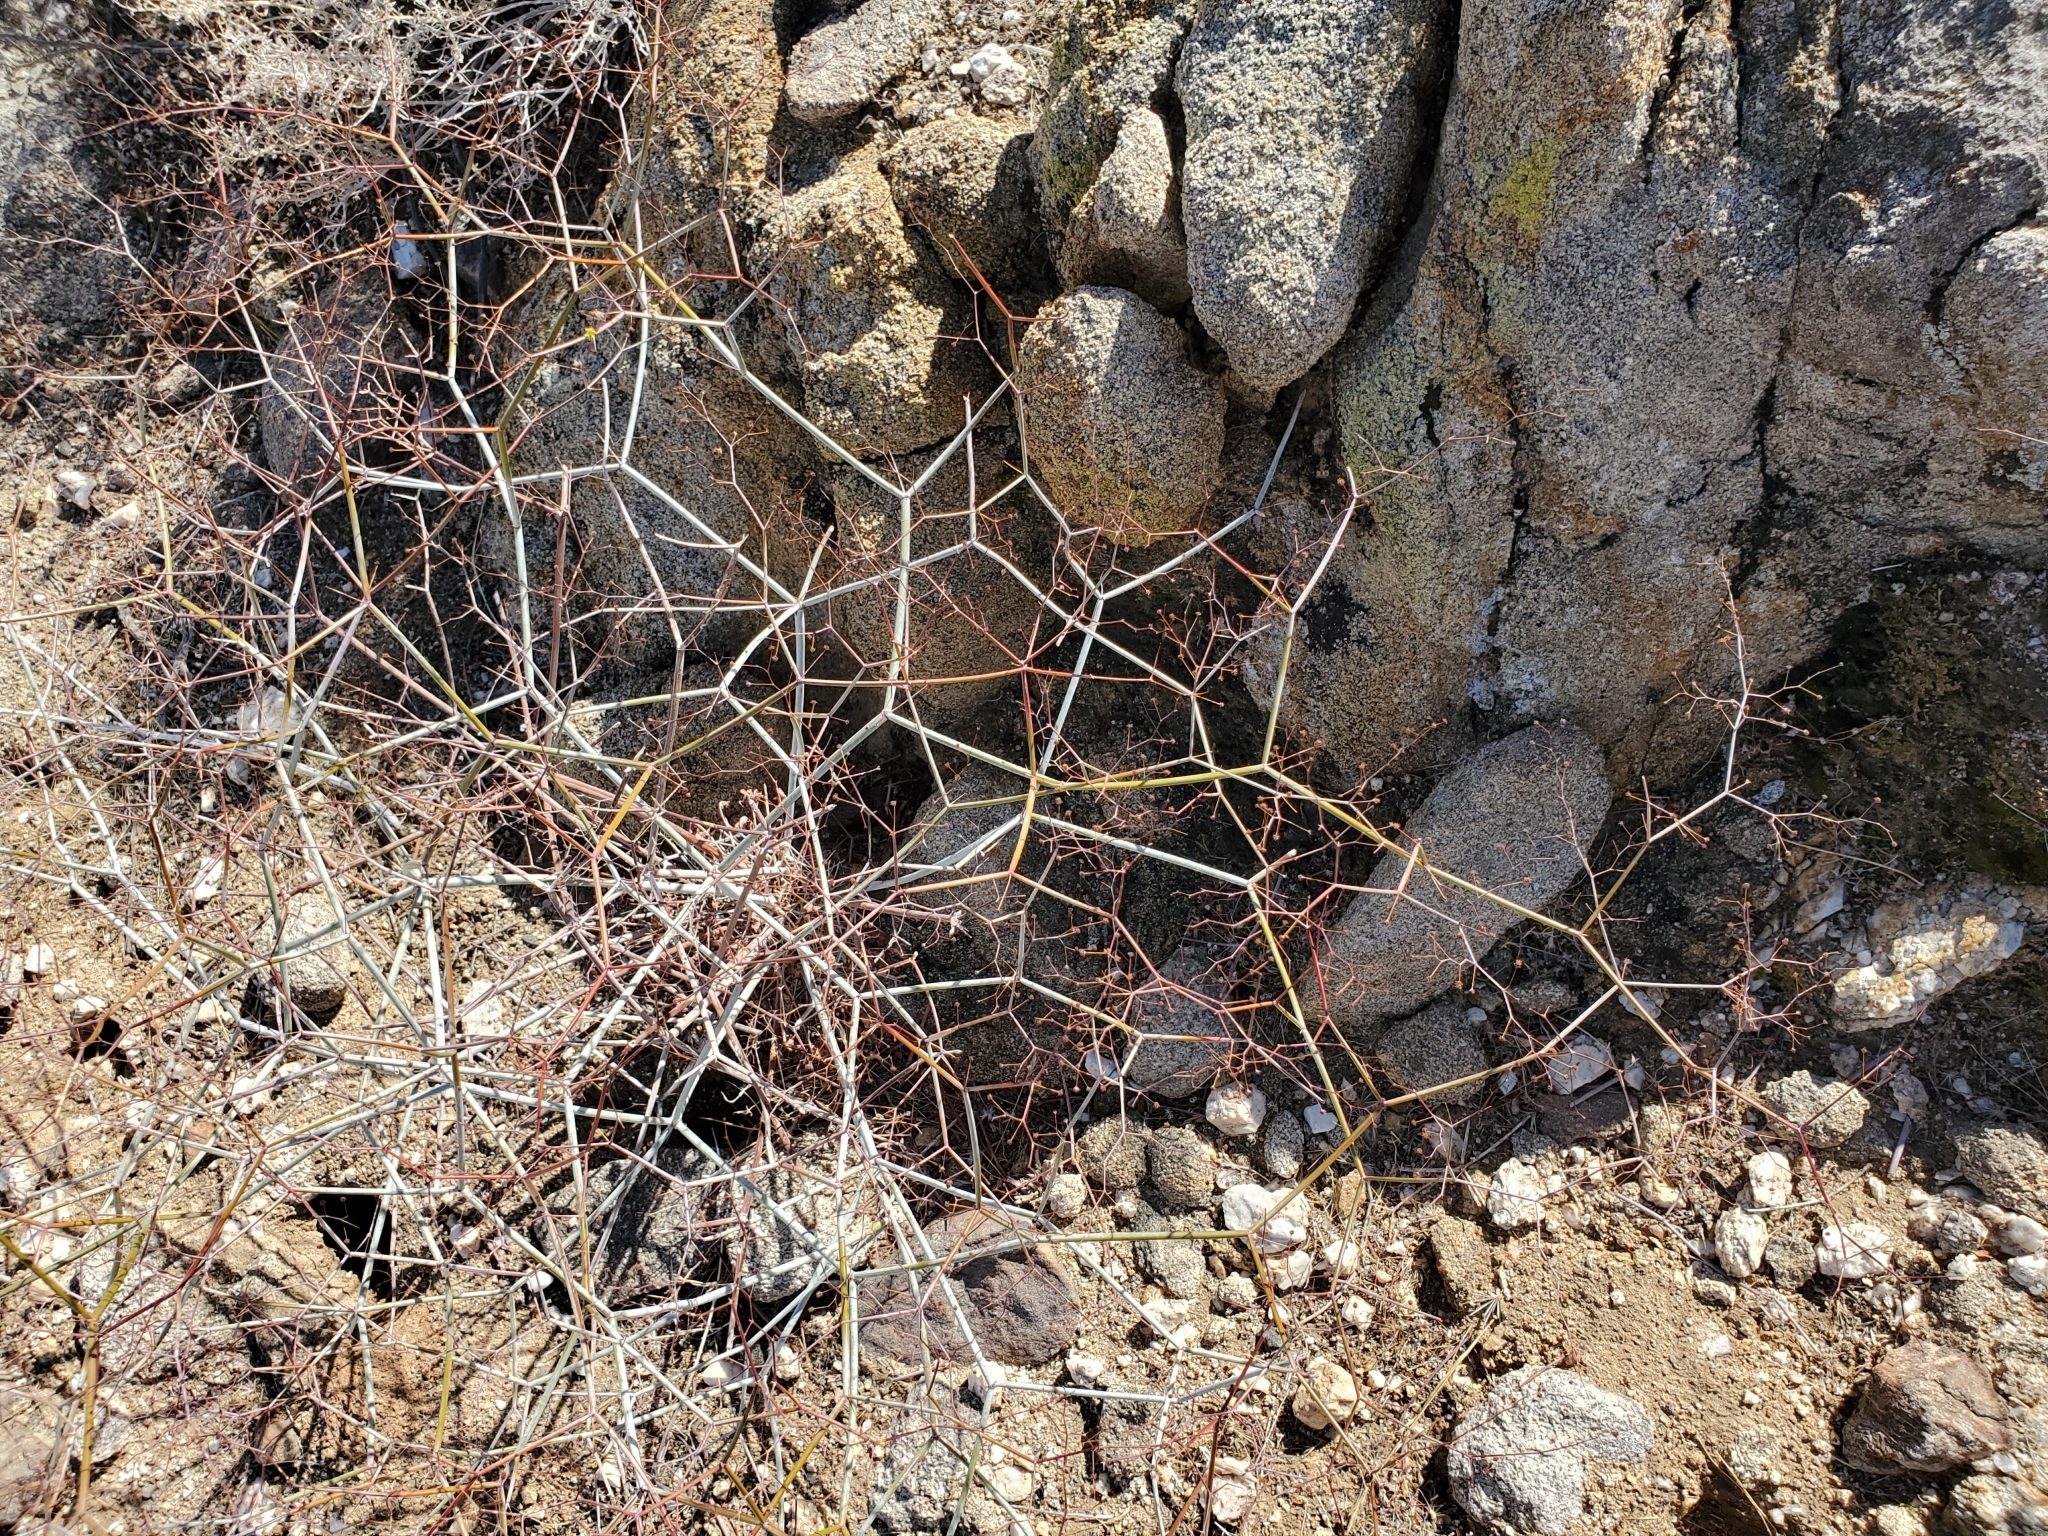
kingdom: Plantae
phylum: Tracheophyta
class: Magnoliopsida
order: Caryophyllales
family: Polygonaceae
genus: Eriogonum
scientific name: Eriogonum inflatum
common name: Desert trumpet
